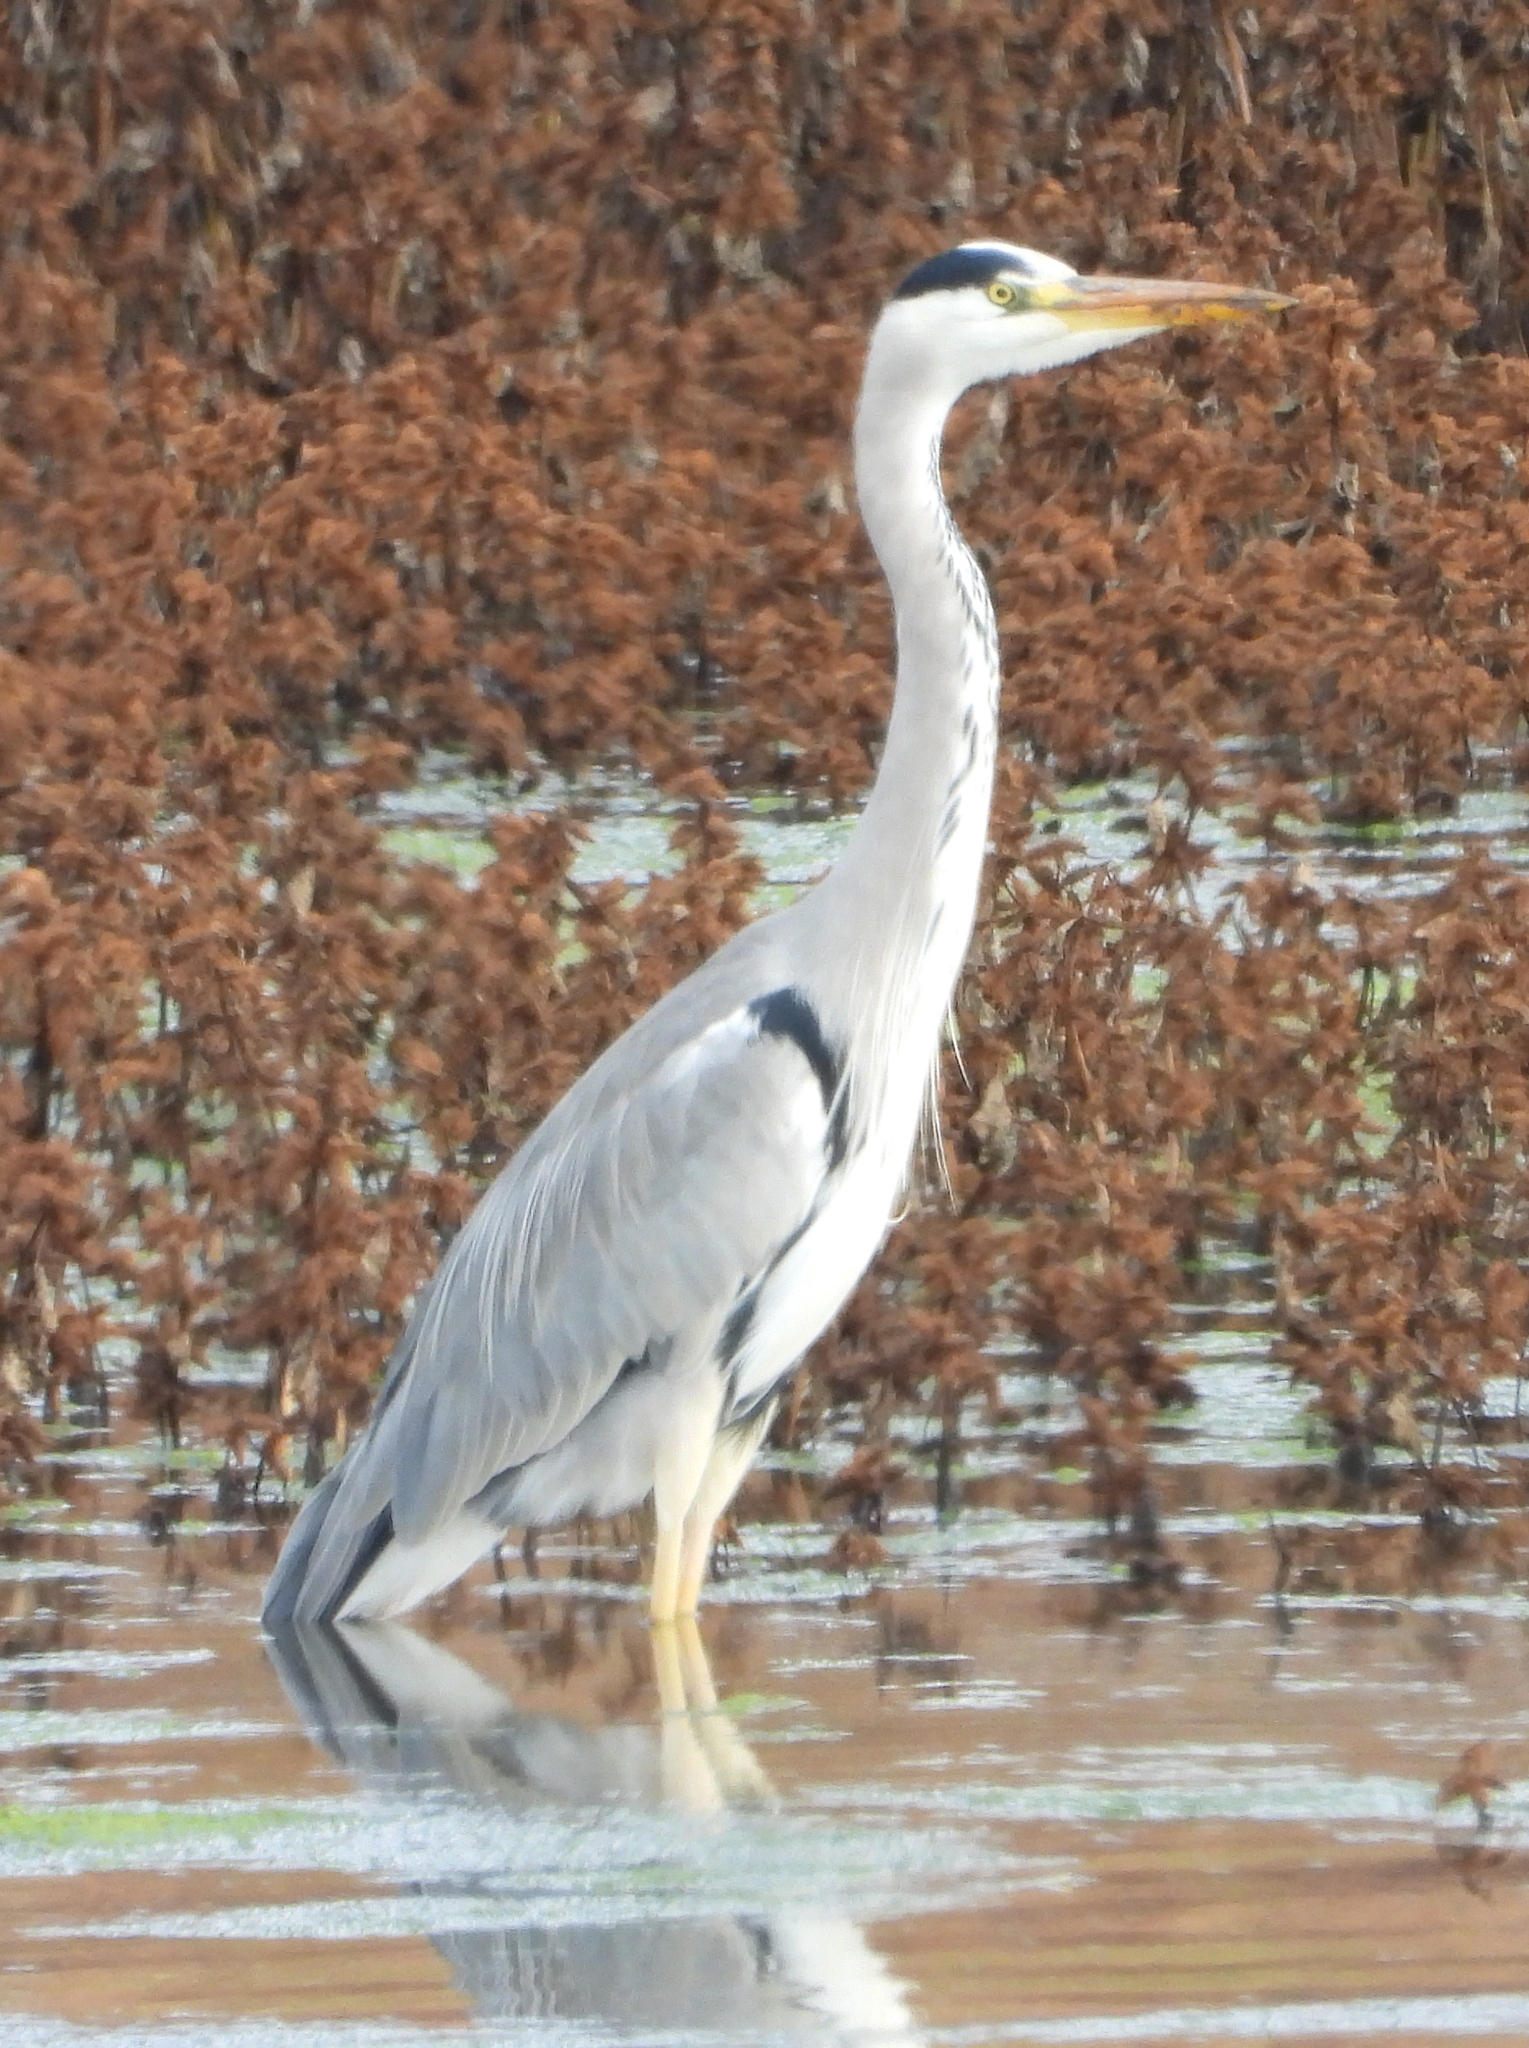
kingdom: Animalia
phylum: Chordata
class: Aves
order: Pelecaniformes
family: Ardeidae
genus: Ardea
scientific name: Ardea cinerea
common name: Grey heron
